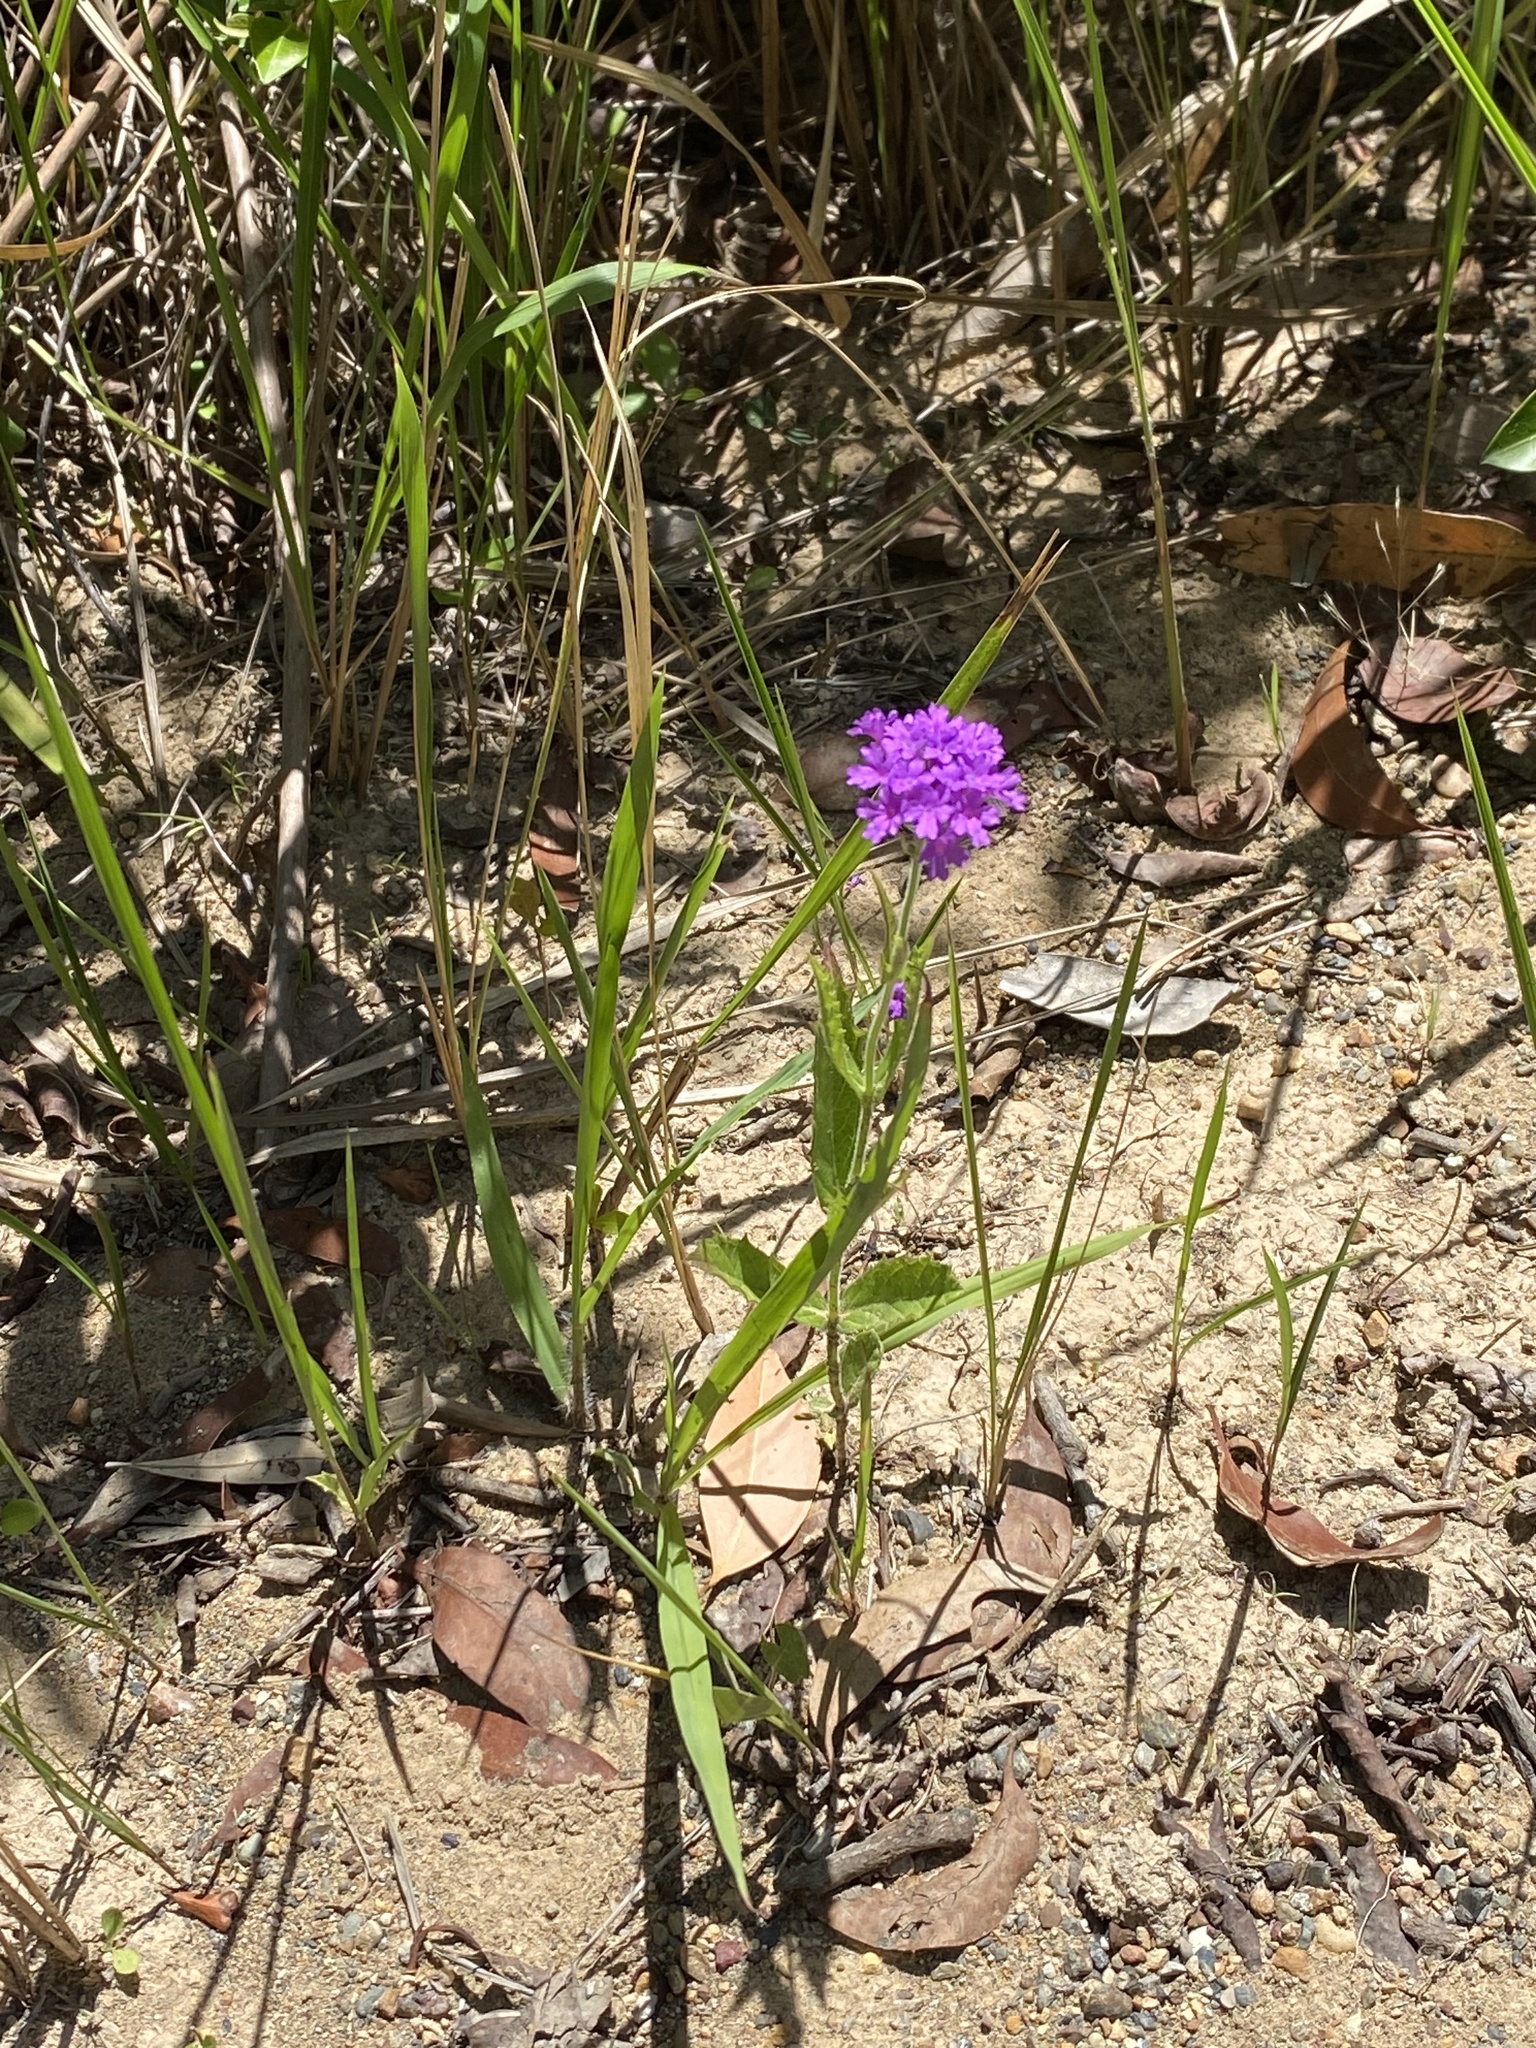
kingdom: Plantae
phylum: Tracheophyta
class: Magnoliopsida
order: Lamiales
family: Verbenaceae
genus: Verbena
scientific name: Verbena rigida
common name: Slender vervain
